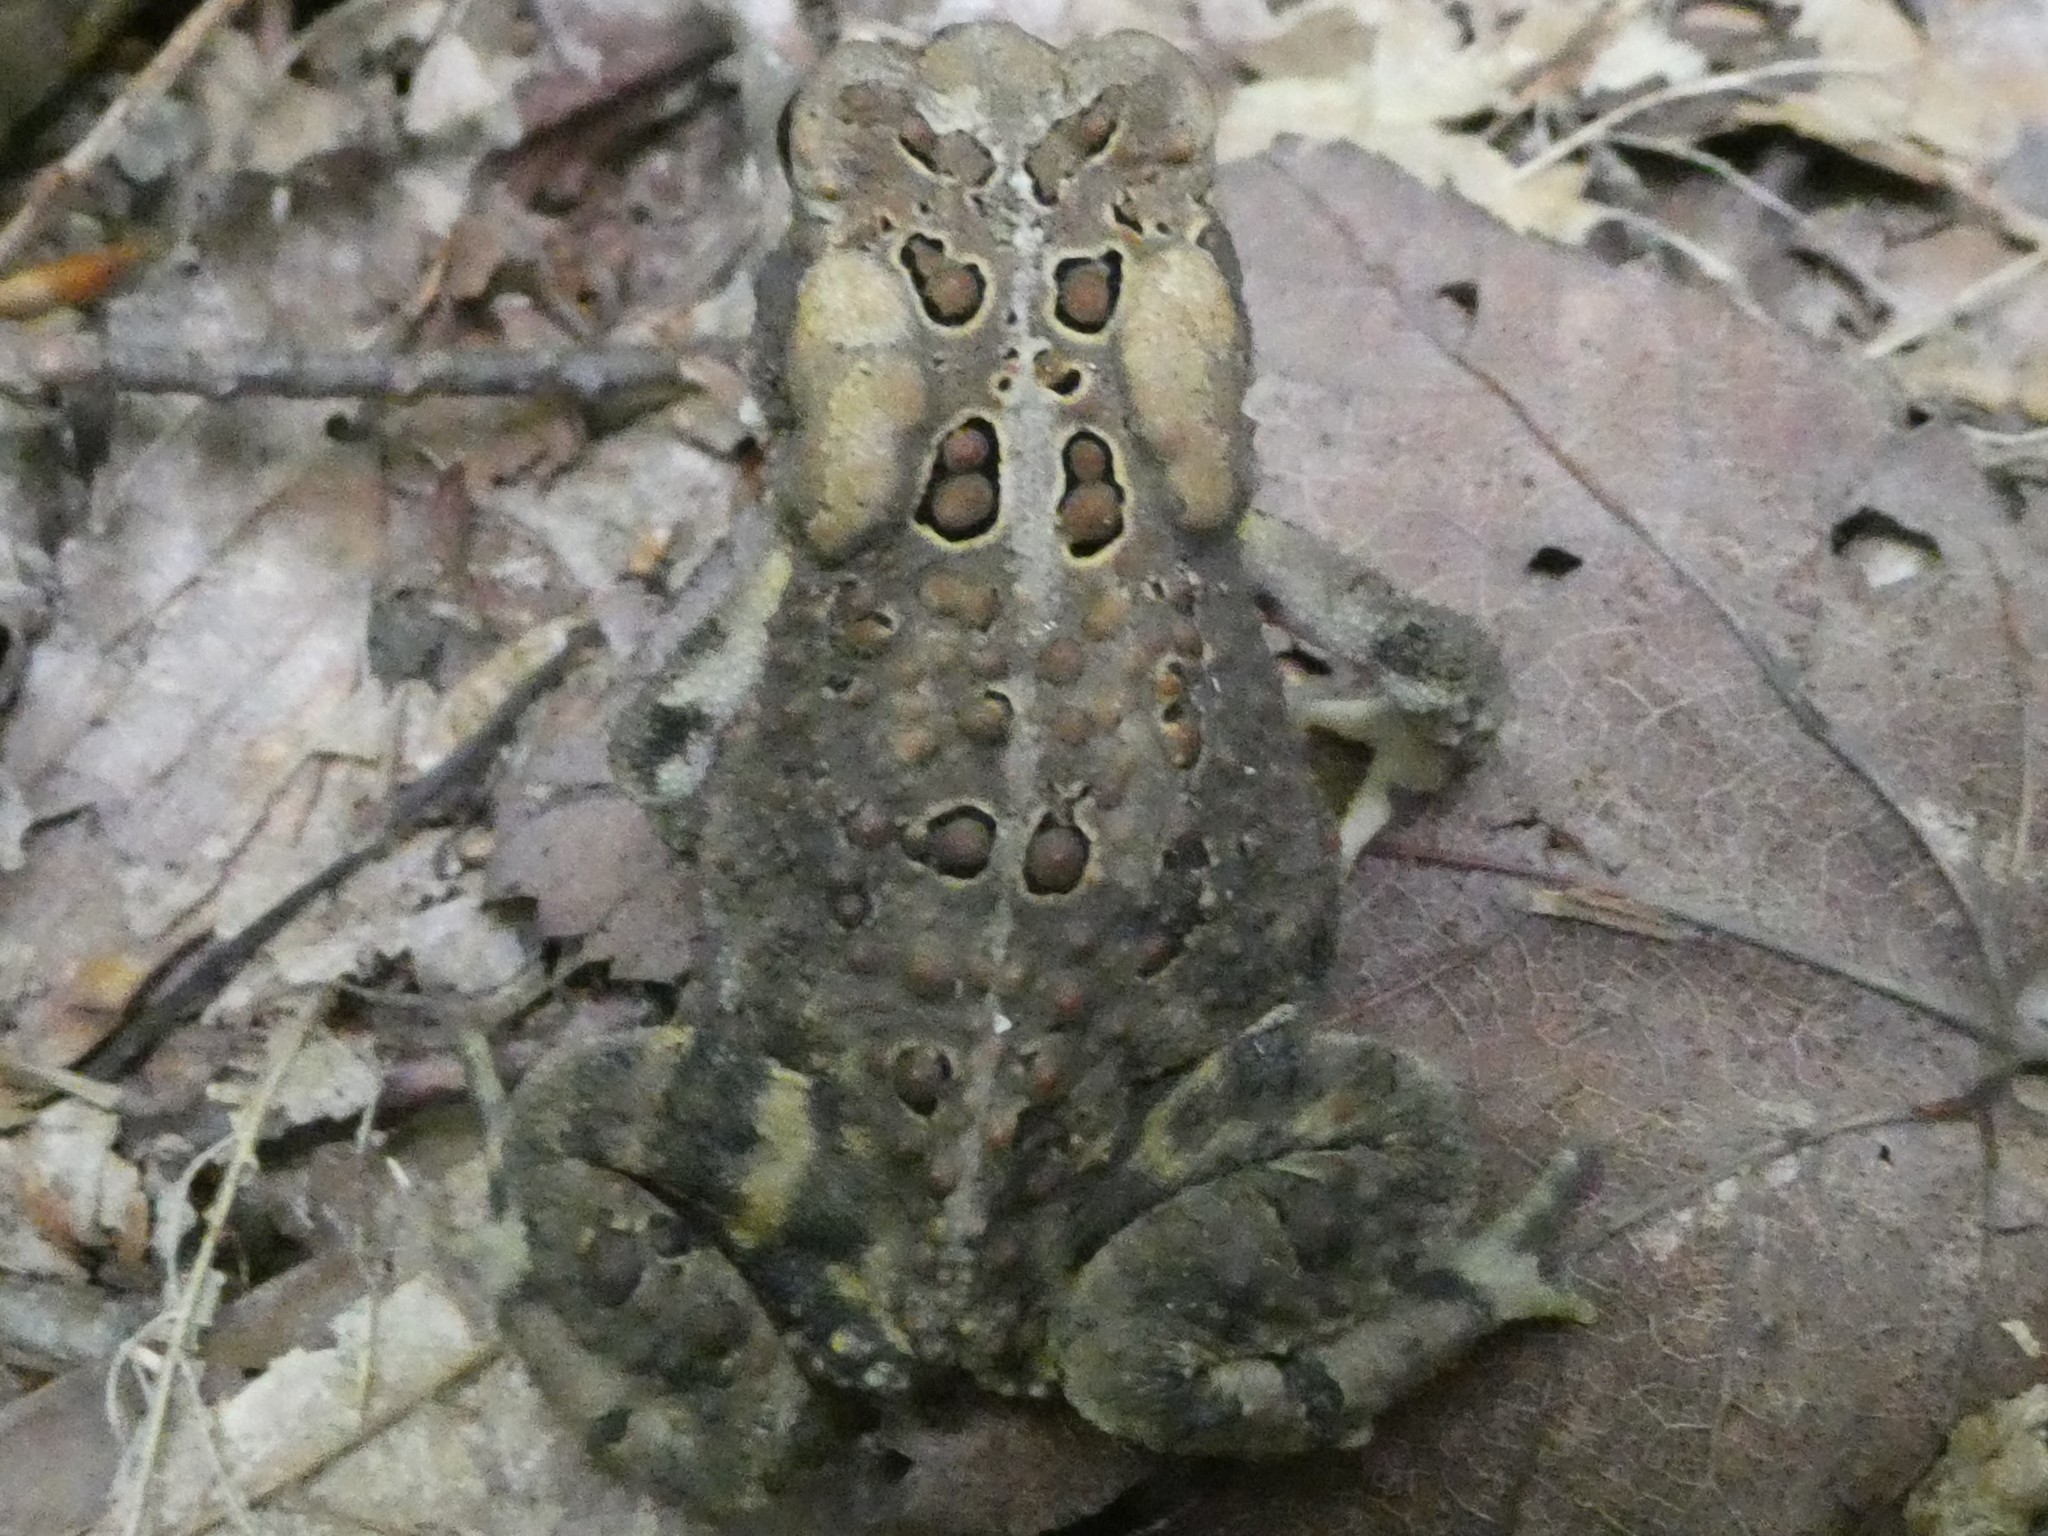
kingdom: Animalia
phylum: Chordata
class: Amphibia
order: Anura
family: Bufonidae
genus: Anaxyrus
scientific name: Anaxyrus americanus
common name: American toad
